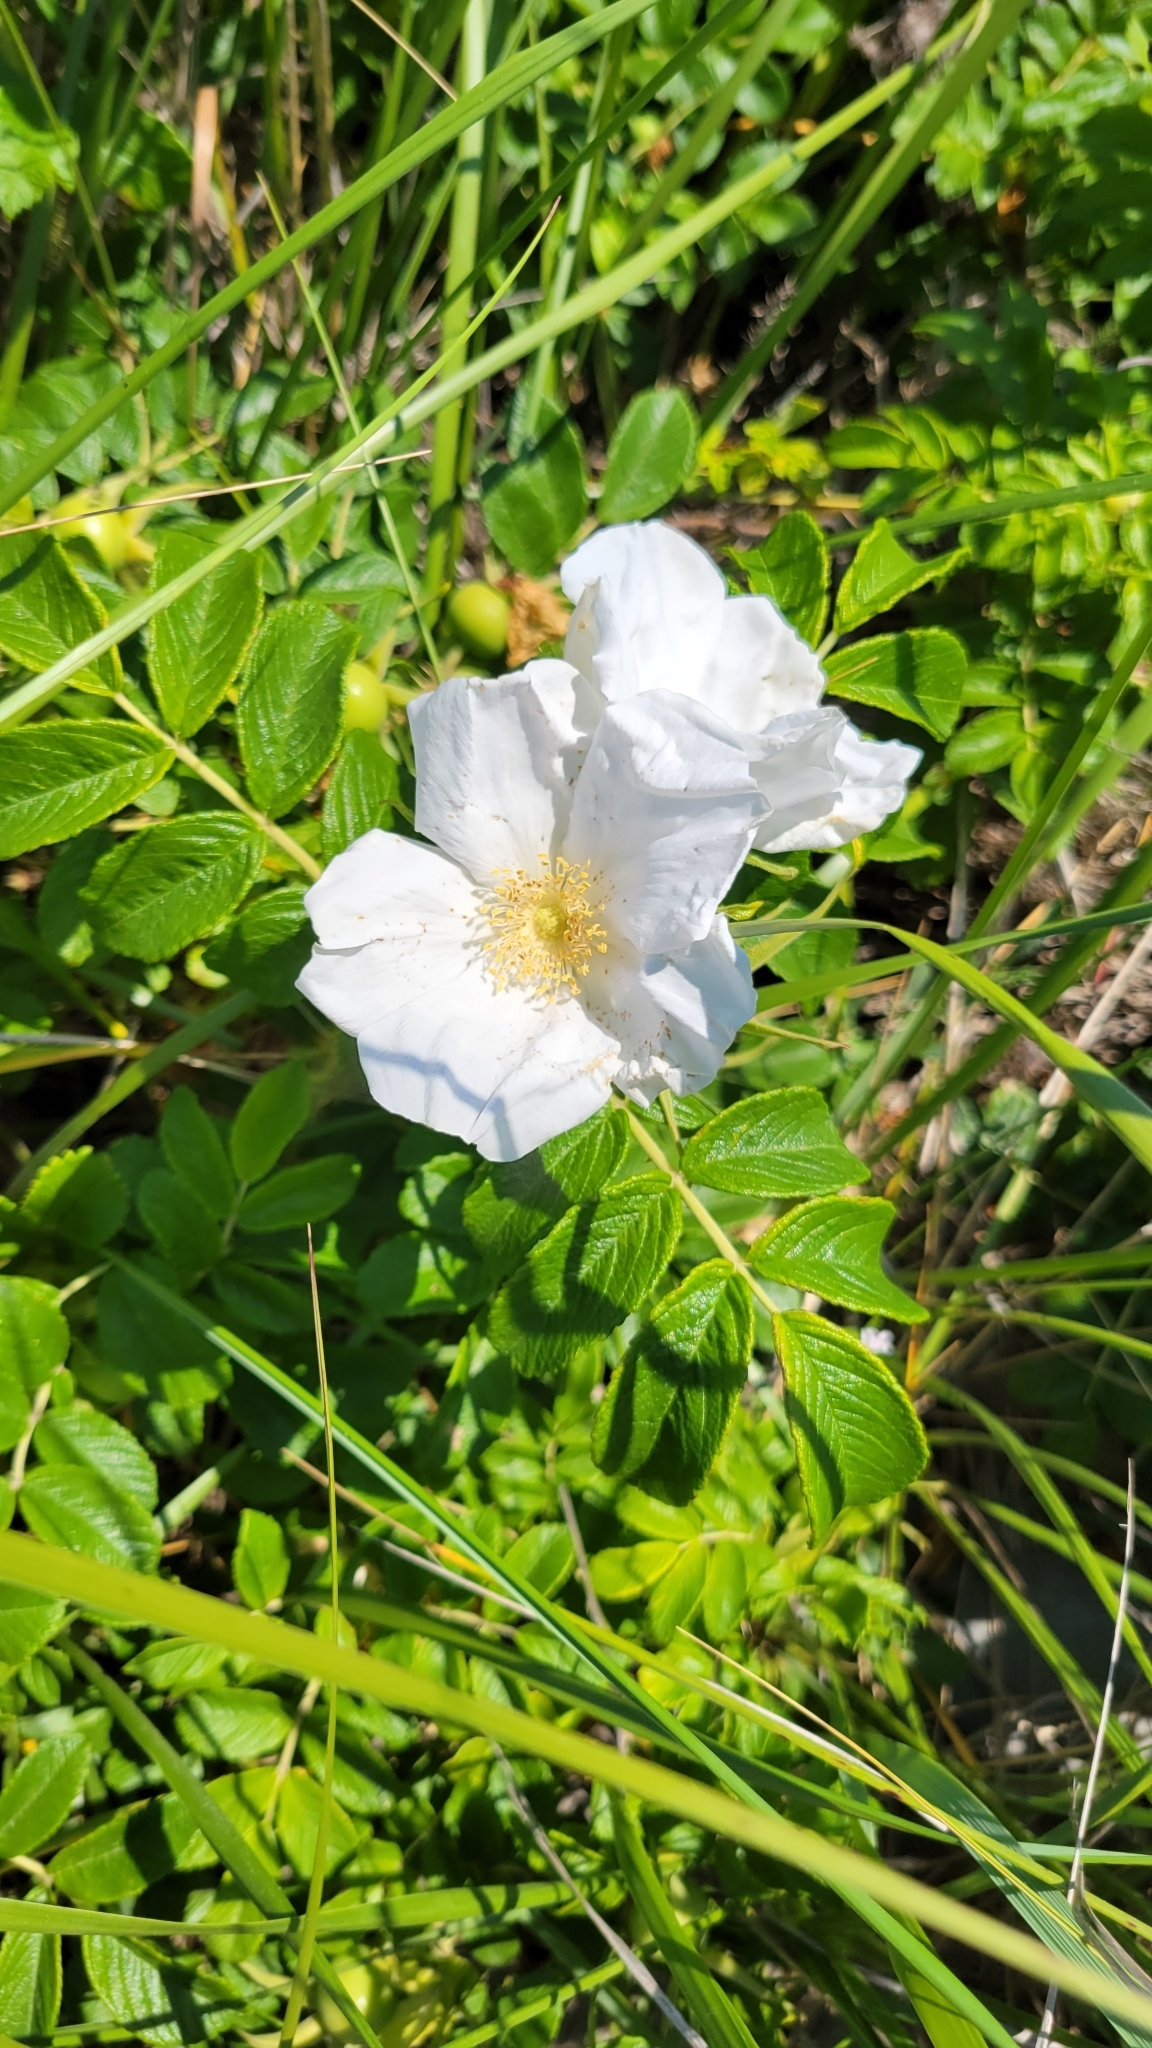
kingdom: Plantae
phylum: Tracheophyta
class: Magnoliopsida
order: Rosales
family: Rosaceae
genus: Rosa
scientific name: Rosa rugosa
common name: Japanese rose
